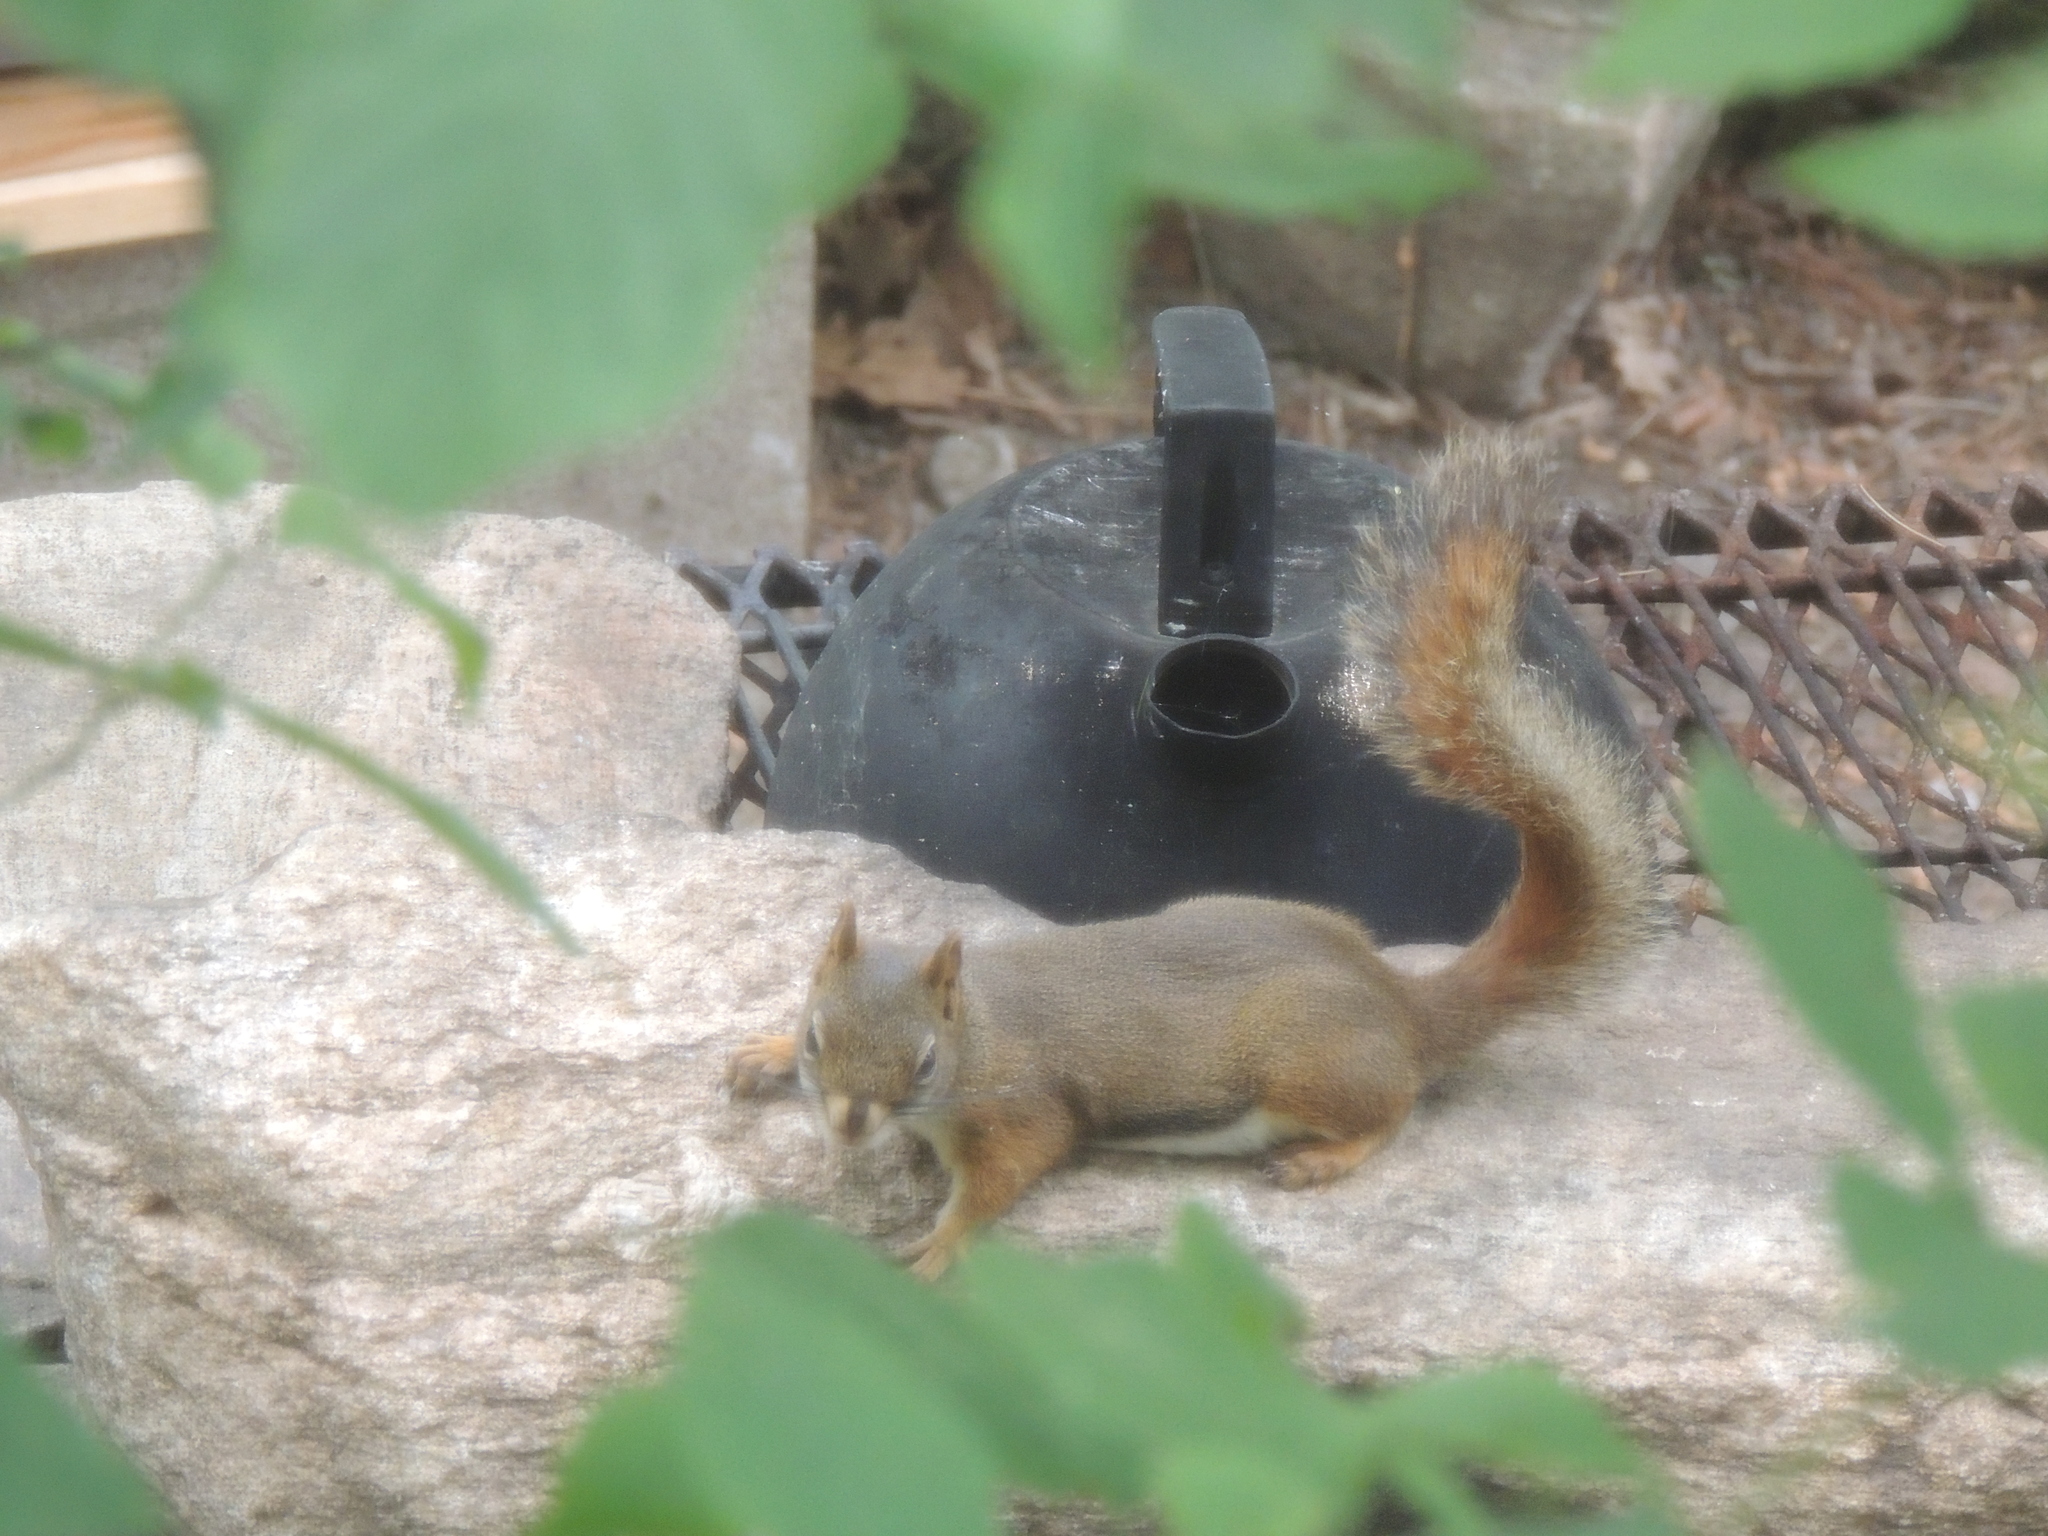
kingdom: Animalia
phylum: Chordata
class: Mammalia
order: Rodentia
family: Sciuridae
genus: Tamiasciurus
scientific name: Tamiasciurus hudsonicus
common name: Red squirrel
